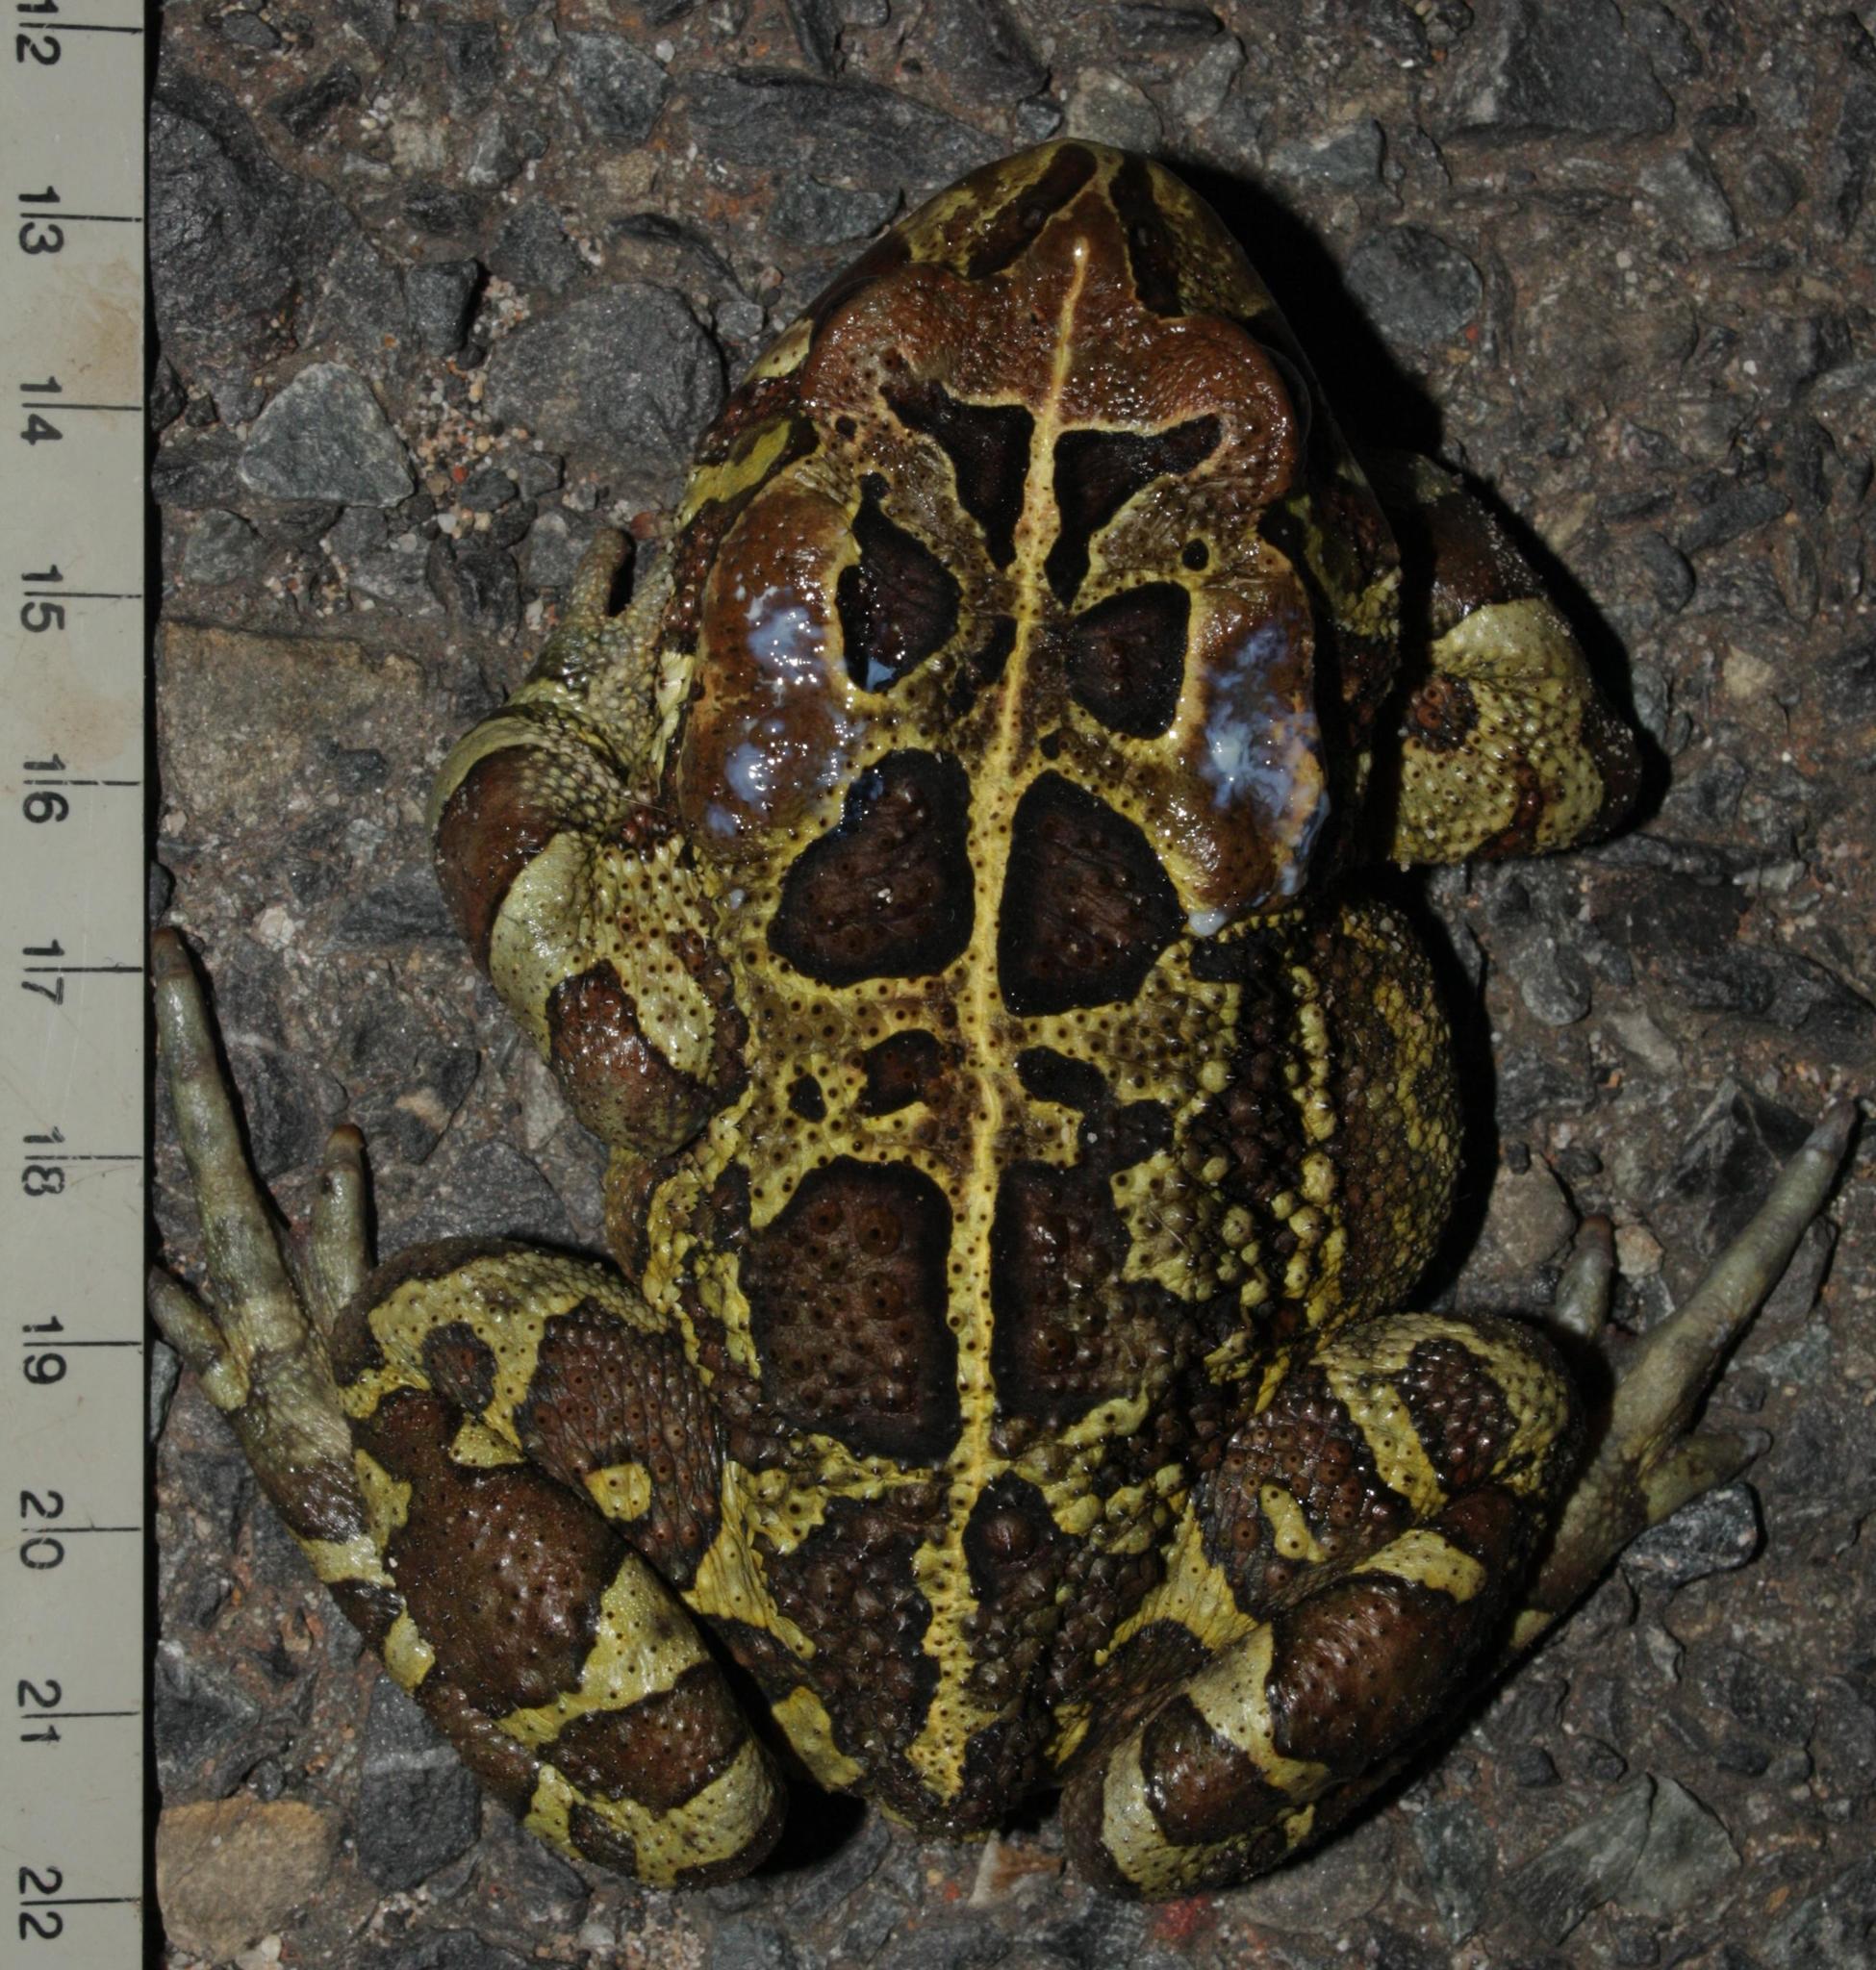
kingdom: Animalia
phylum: Chordata
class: Amphibia
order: Anura
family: Bufonidae
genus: Sclerophrys
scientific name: Sclerophrys pantherina
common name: Panther toad
